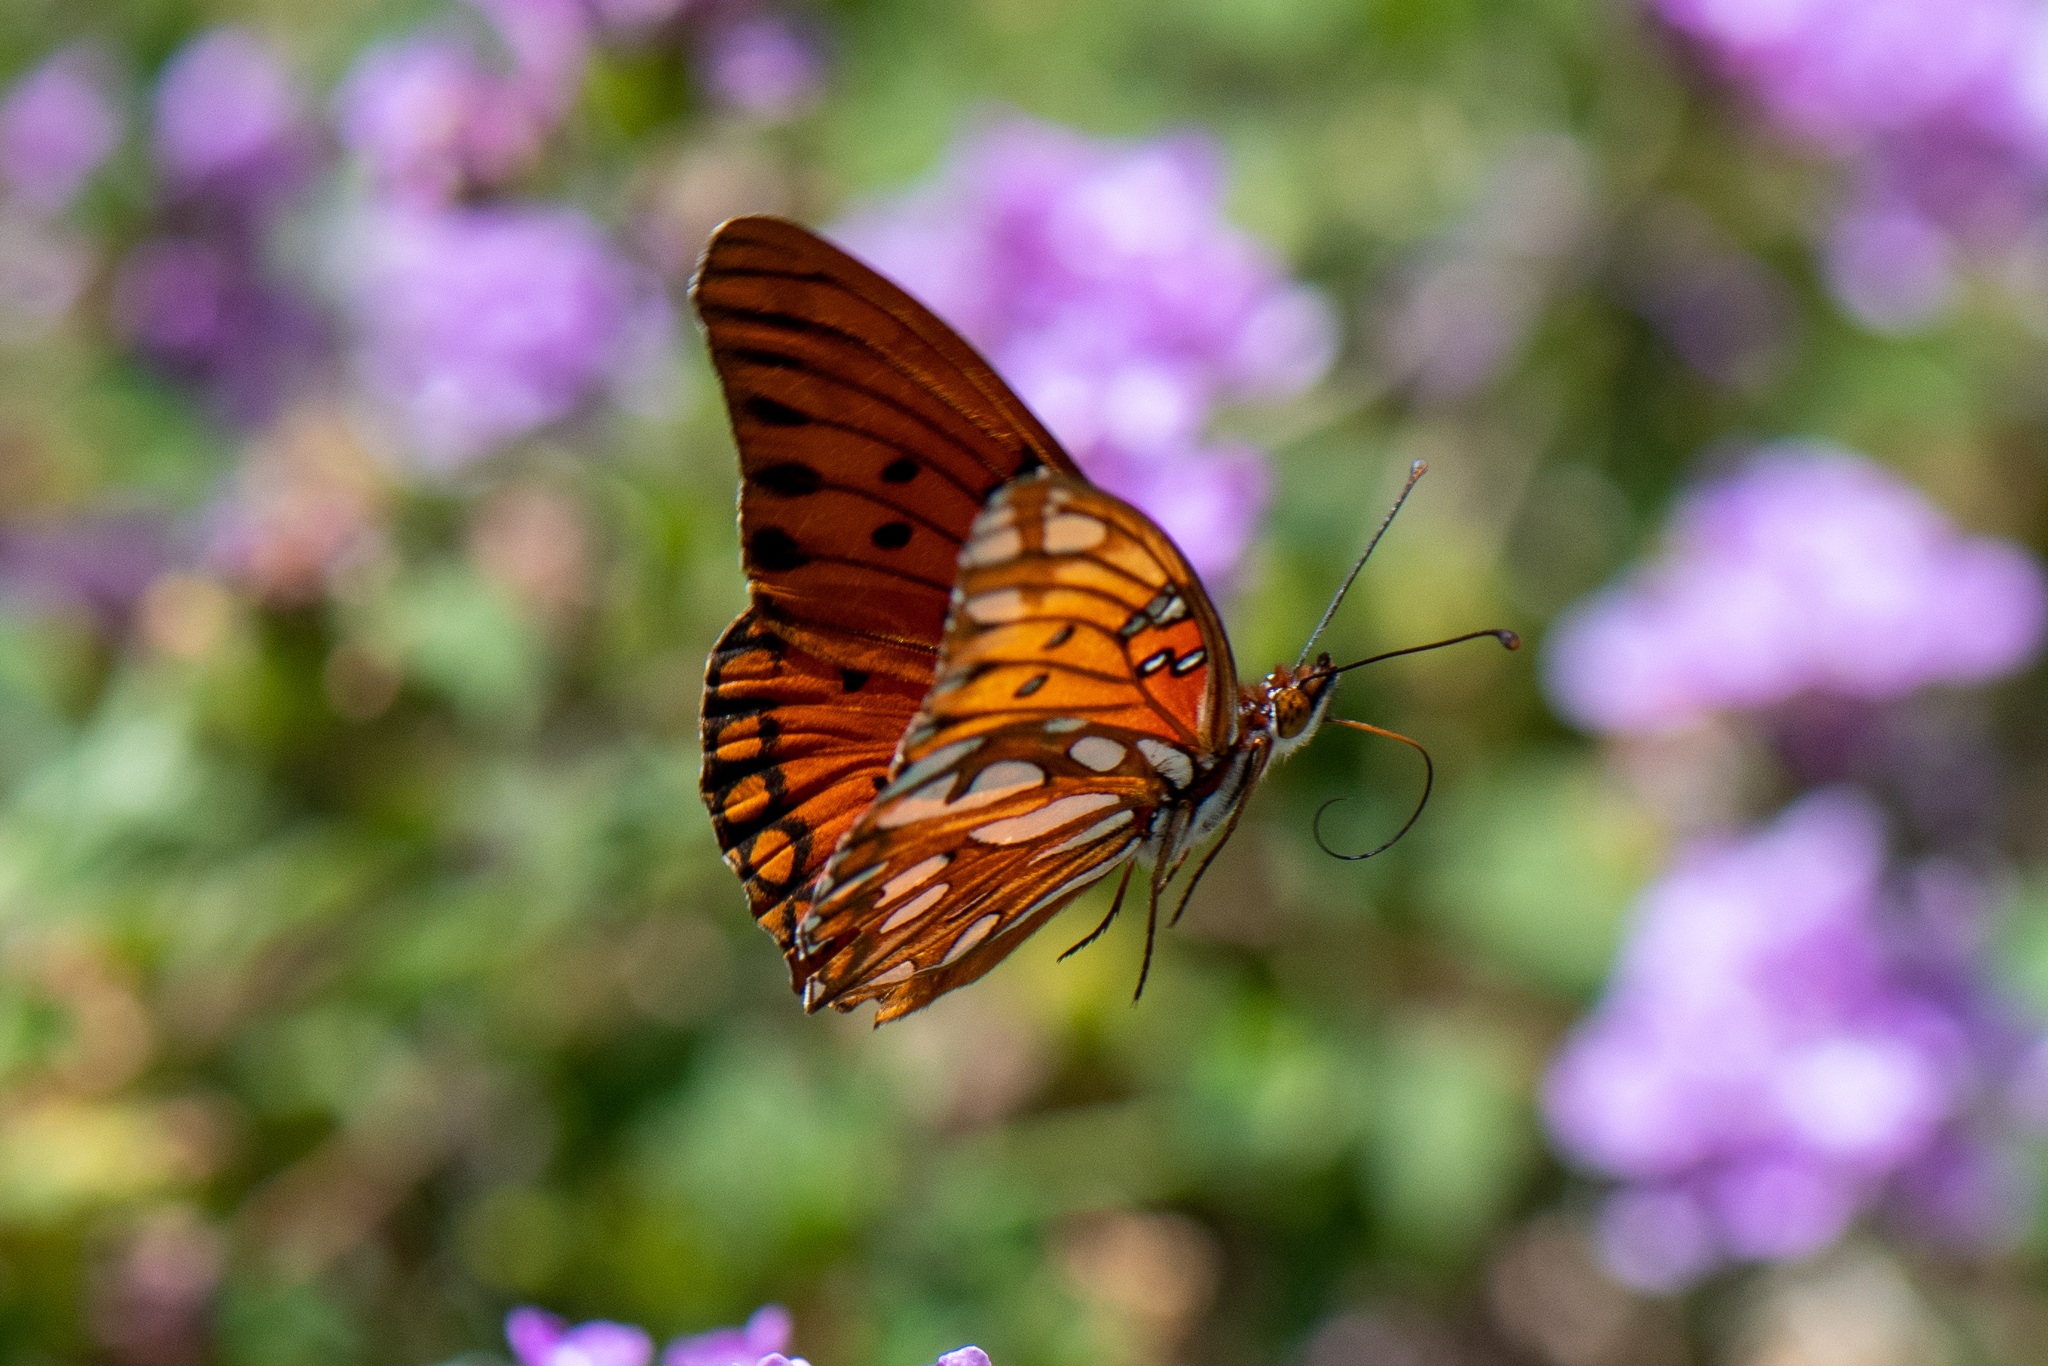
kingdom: Animalia
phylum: Arthropoda
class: Insecta
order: Lepidoptera
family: Nymphalidae
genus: Dione
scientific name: Dione vanillae
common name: Gulf fritillary
